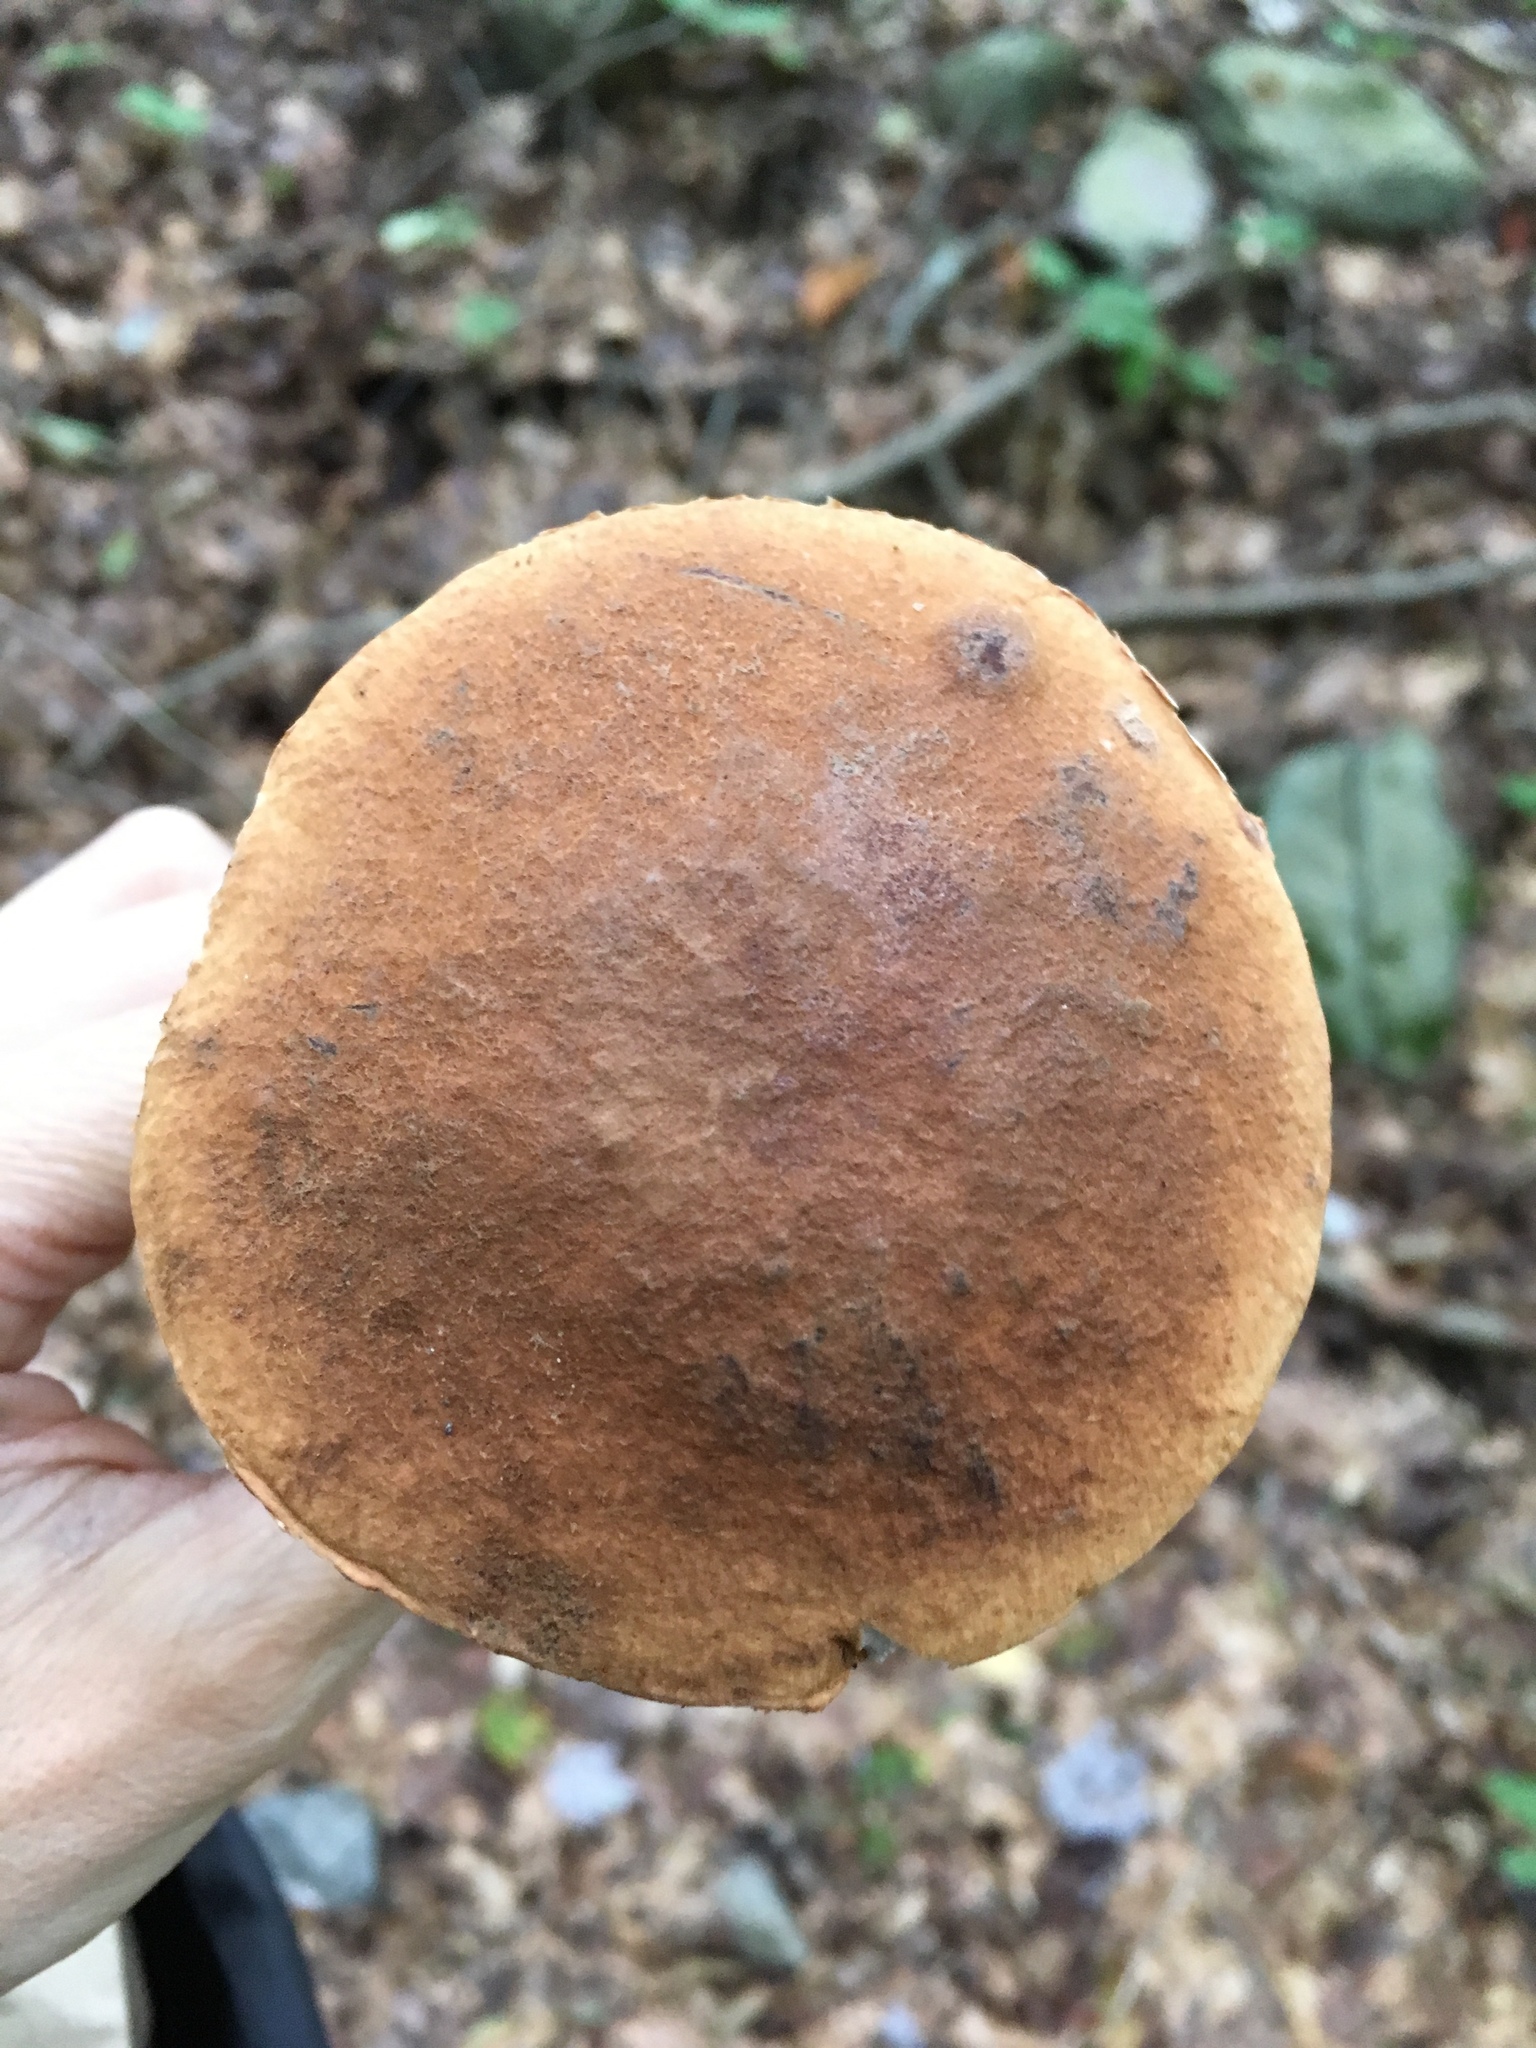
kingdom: Fungi
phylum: Basidiomycota
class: Agaricomycetes
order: Boletales
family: Boletaceae
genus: Leccinum
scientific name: Leccinum insigne
